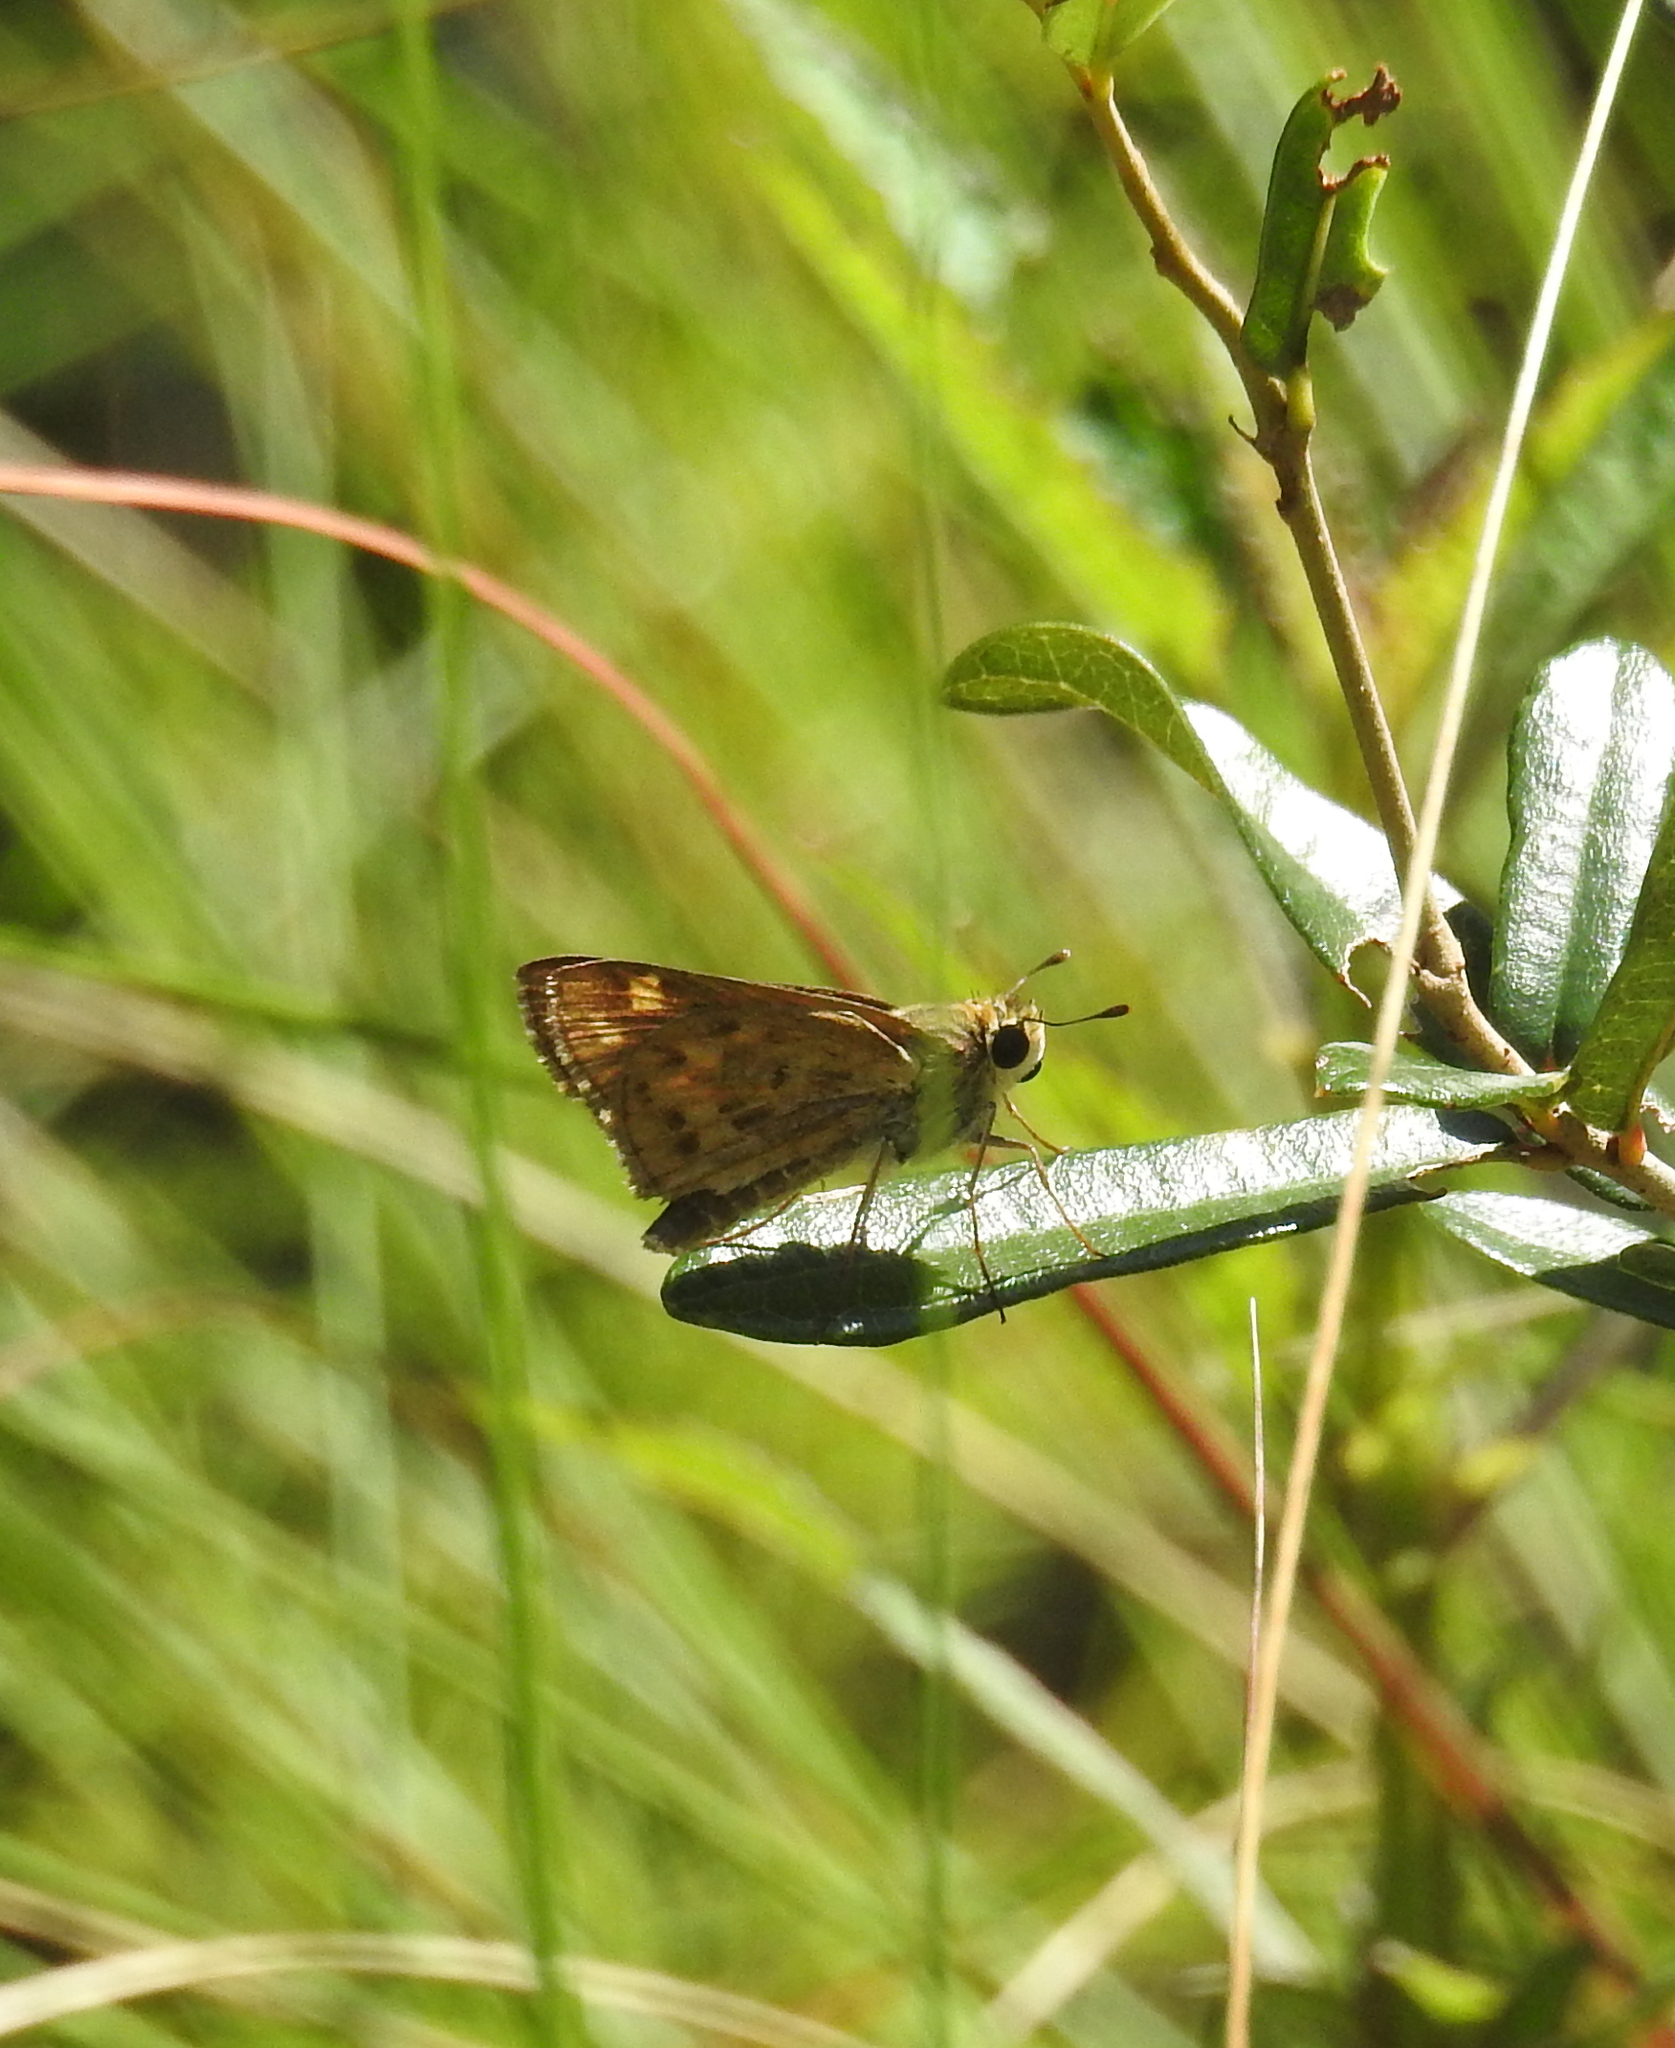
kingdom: Animalia
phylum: Arthropoda
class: Insecta
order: Lepidoptera
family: Hesperiidae
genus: Hylephila
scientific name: Hylephila phyleus
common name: Fiery skipper
